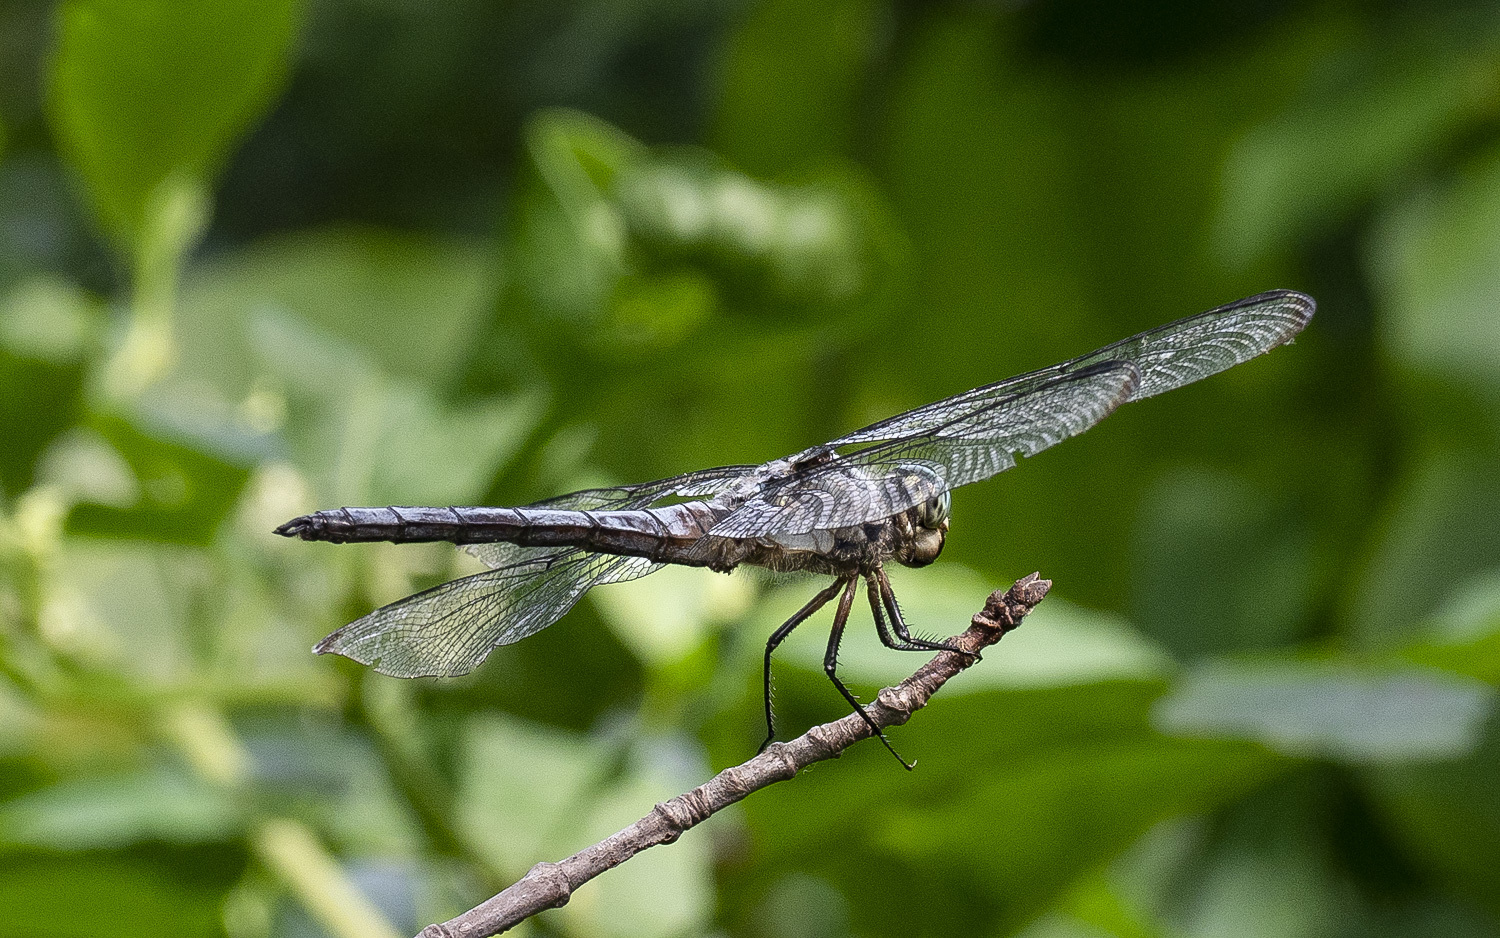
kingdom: Animalia
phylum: Arthropoda
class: Insecta
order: Odonata
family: Libellulidae
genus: Libellula
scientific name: Libellula vibrans
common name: Great blue skimmer
